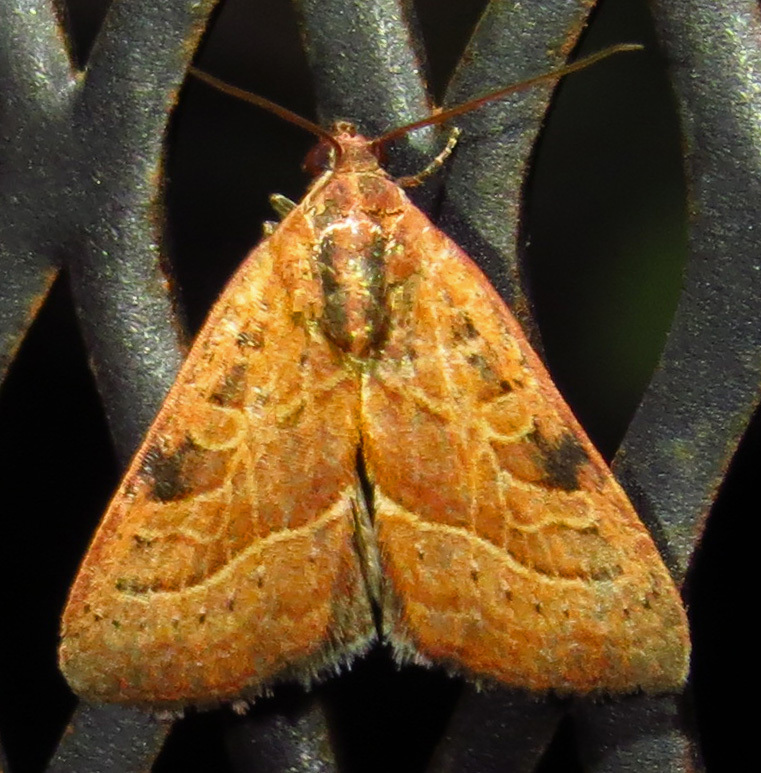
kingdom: Animalia
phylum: Arthropoda
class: Insecta
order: Lepidoptera
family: Noctuidae
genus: Galgula
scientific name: Galgula partita
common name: Wedgeling
